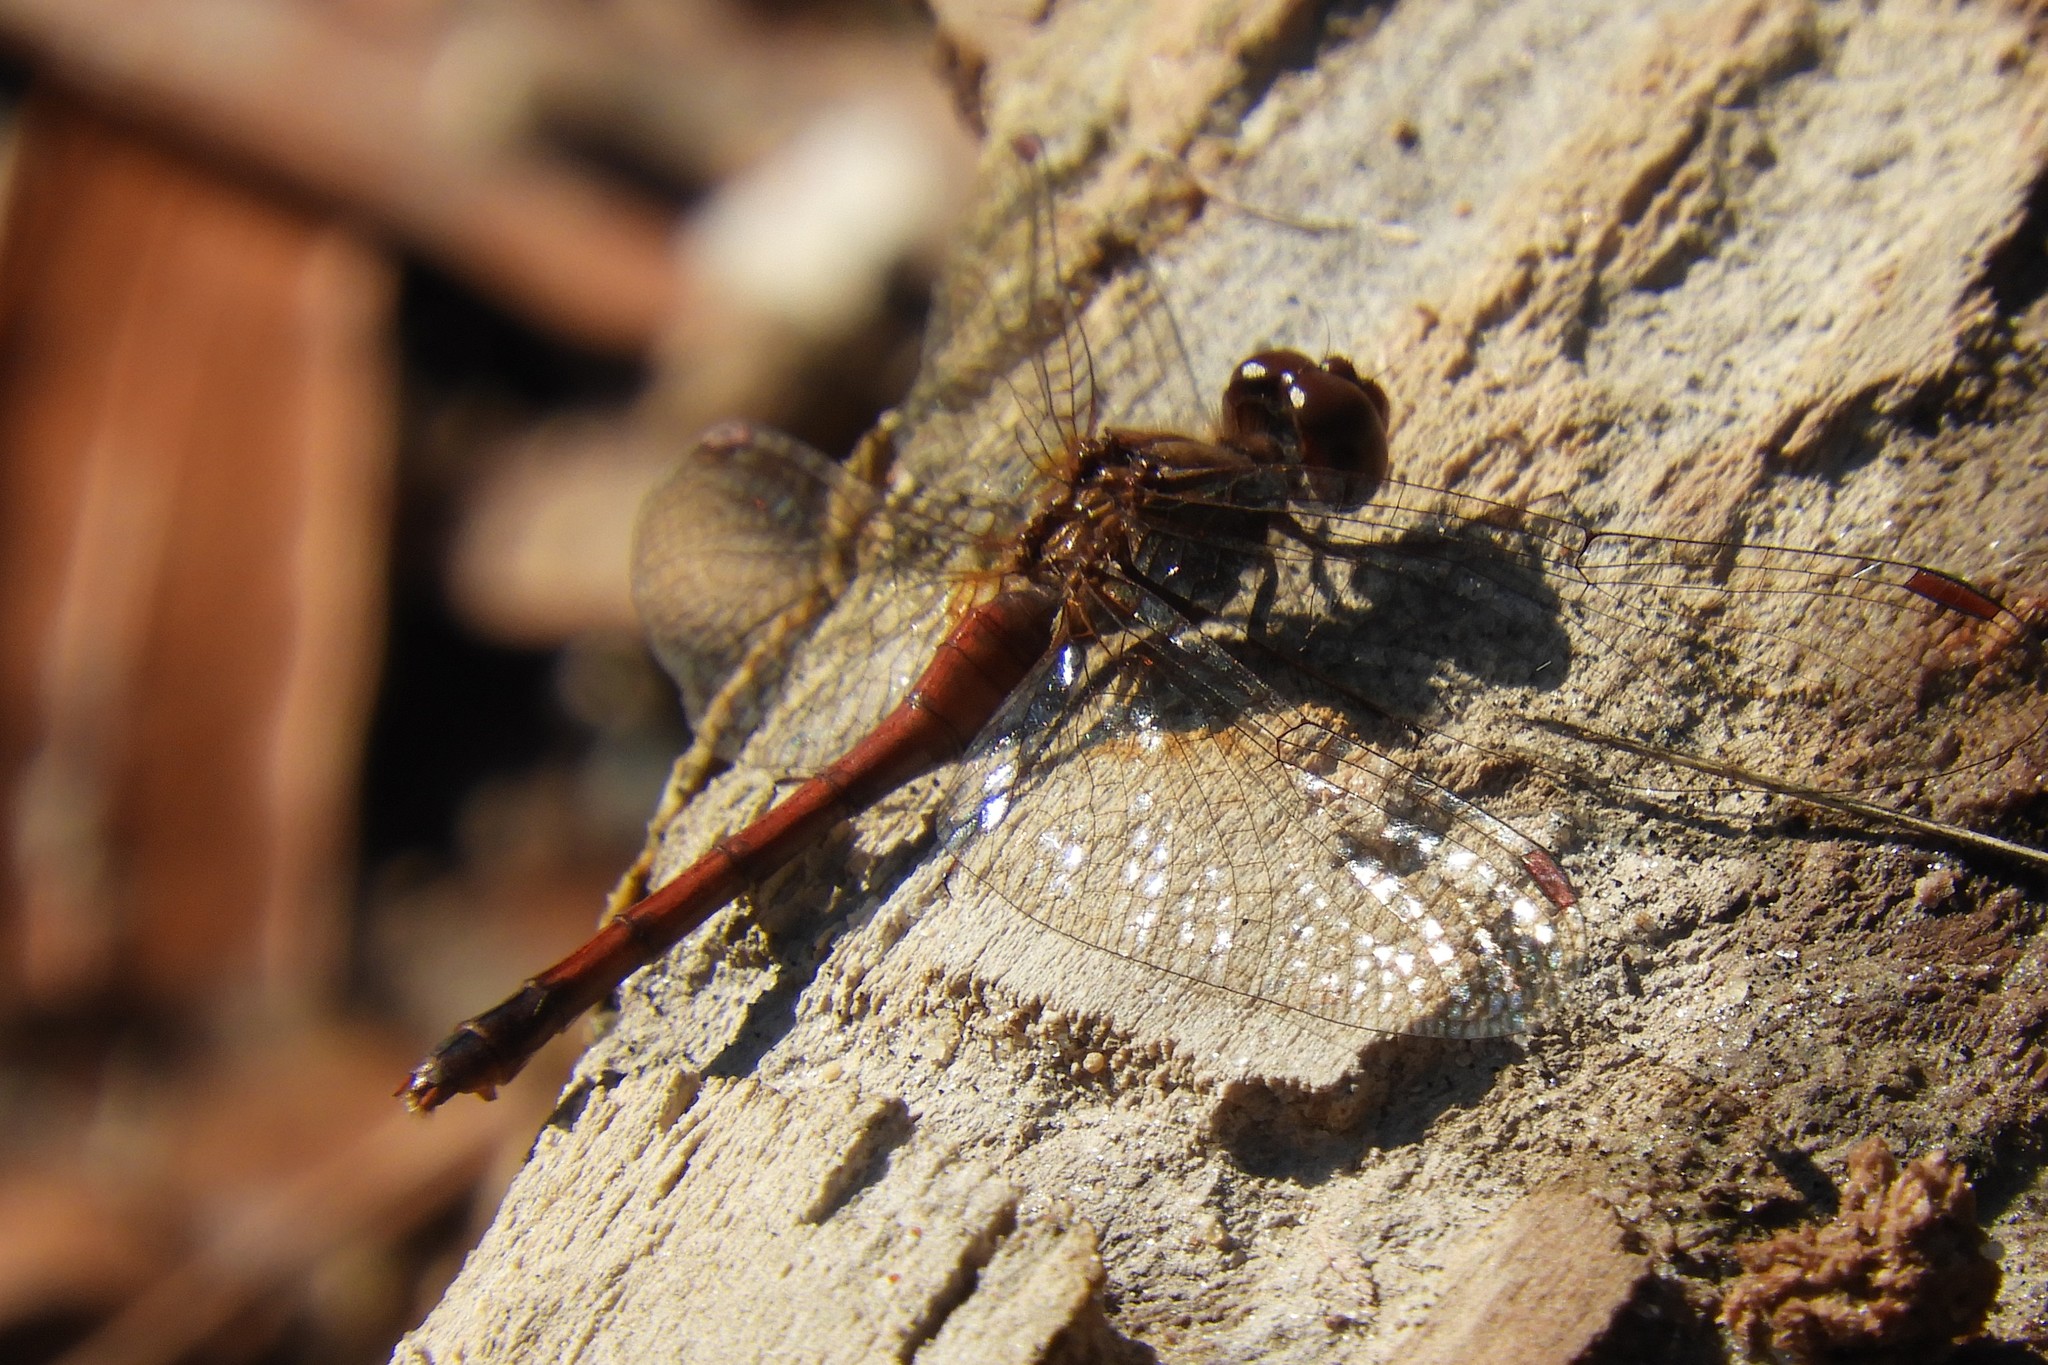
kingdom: Animalia
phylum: Arthropoda
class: Insecta
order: Odonata
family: Libellulidae
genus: Sympetrum
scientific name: Sympetrum vicinum
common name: Autumn meadowhawk
